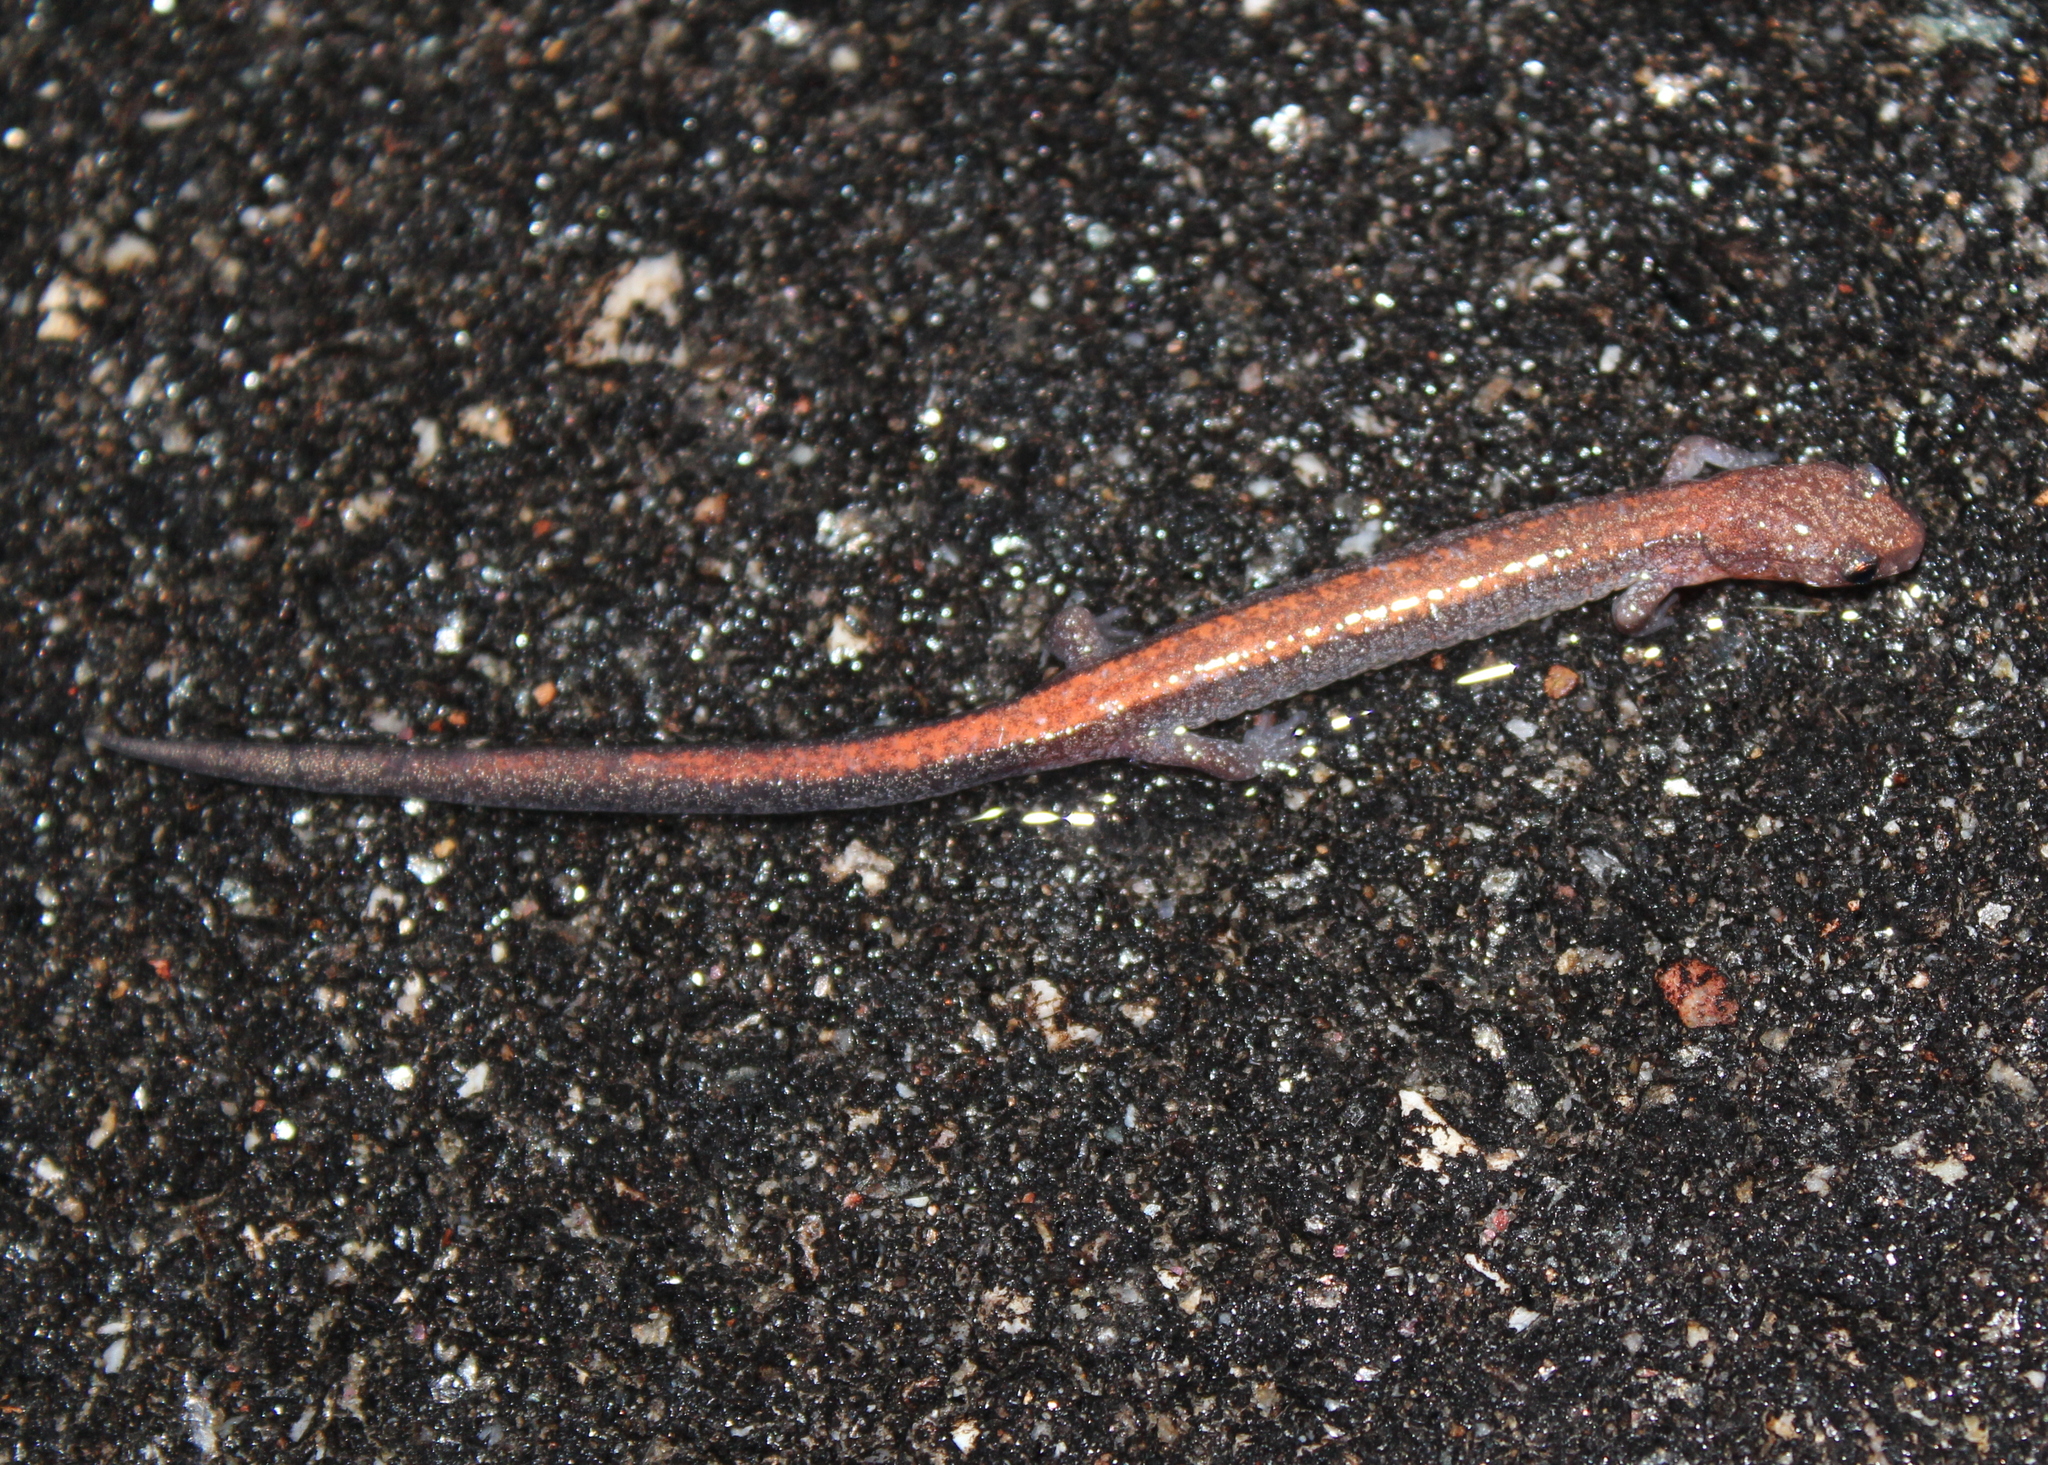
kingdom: Animalia
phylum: Chordata
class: Amphibia
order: Caudata
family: Plethodontidae
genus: Plethodon
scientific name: Plethodon cinereus
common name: Redback salamander
